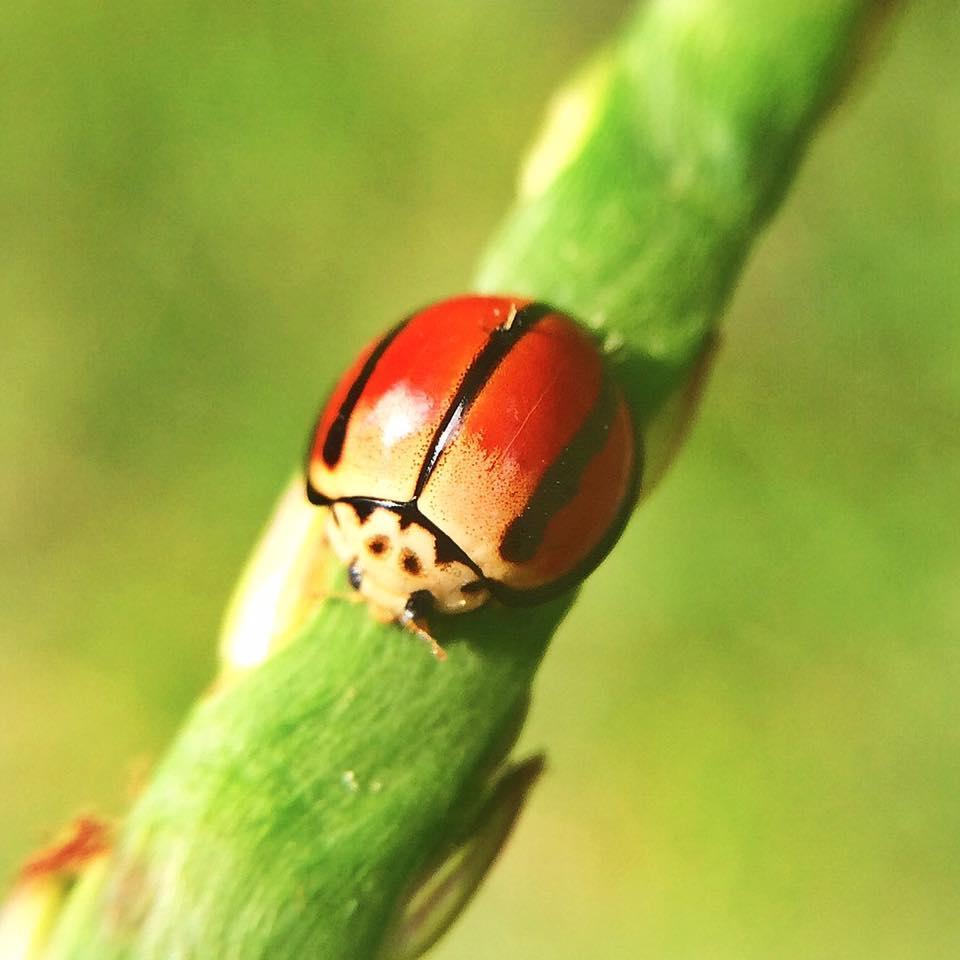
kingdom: Animalia
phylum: Arthropoda
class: Insecta
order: Coleoptera
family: Coccinellidae
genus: Declivitata
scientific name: Declivitata
